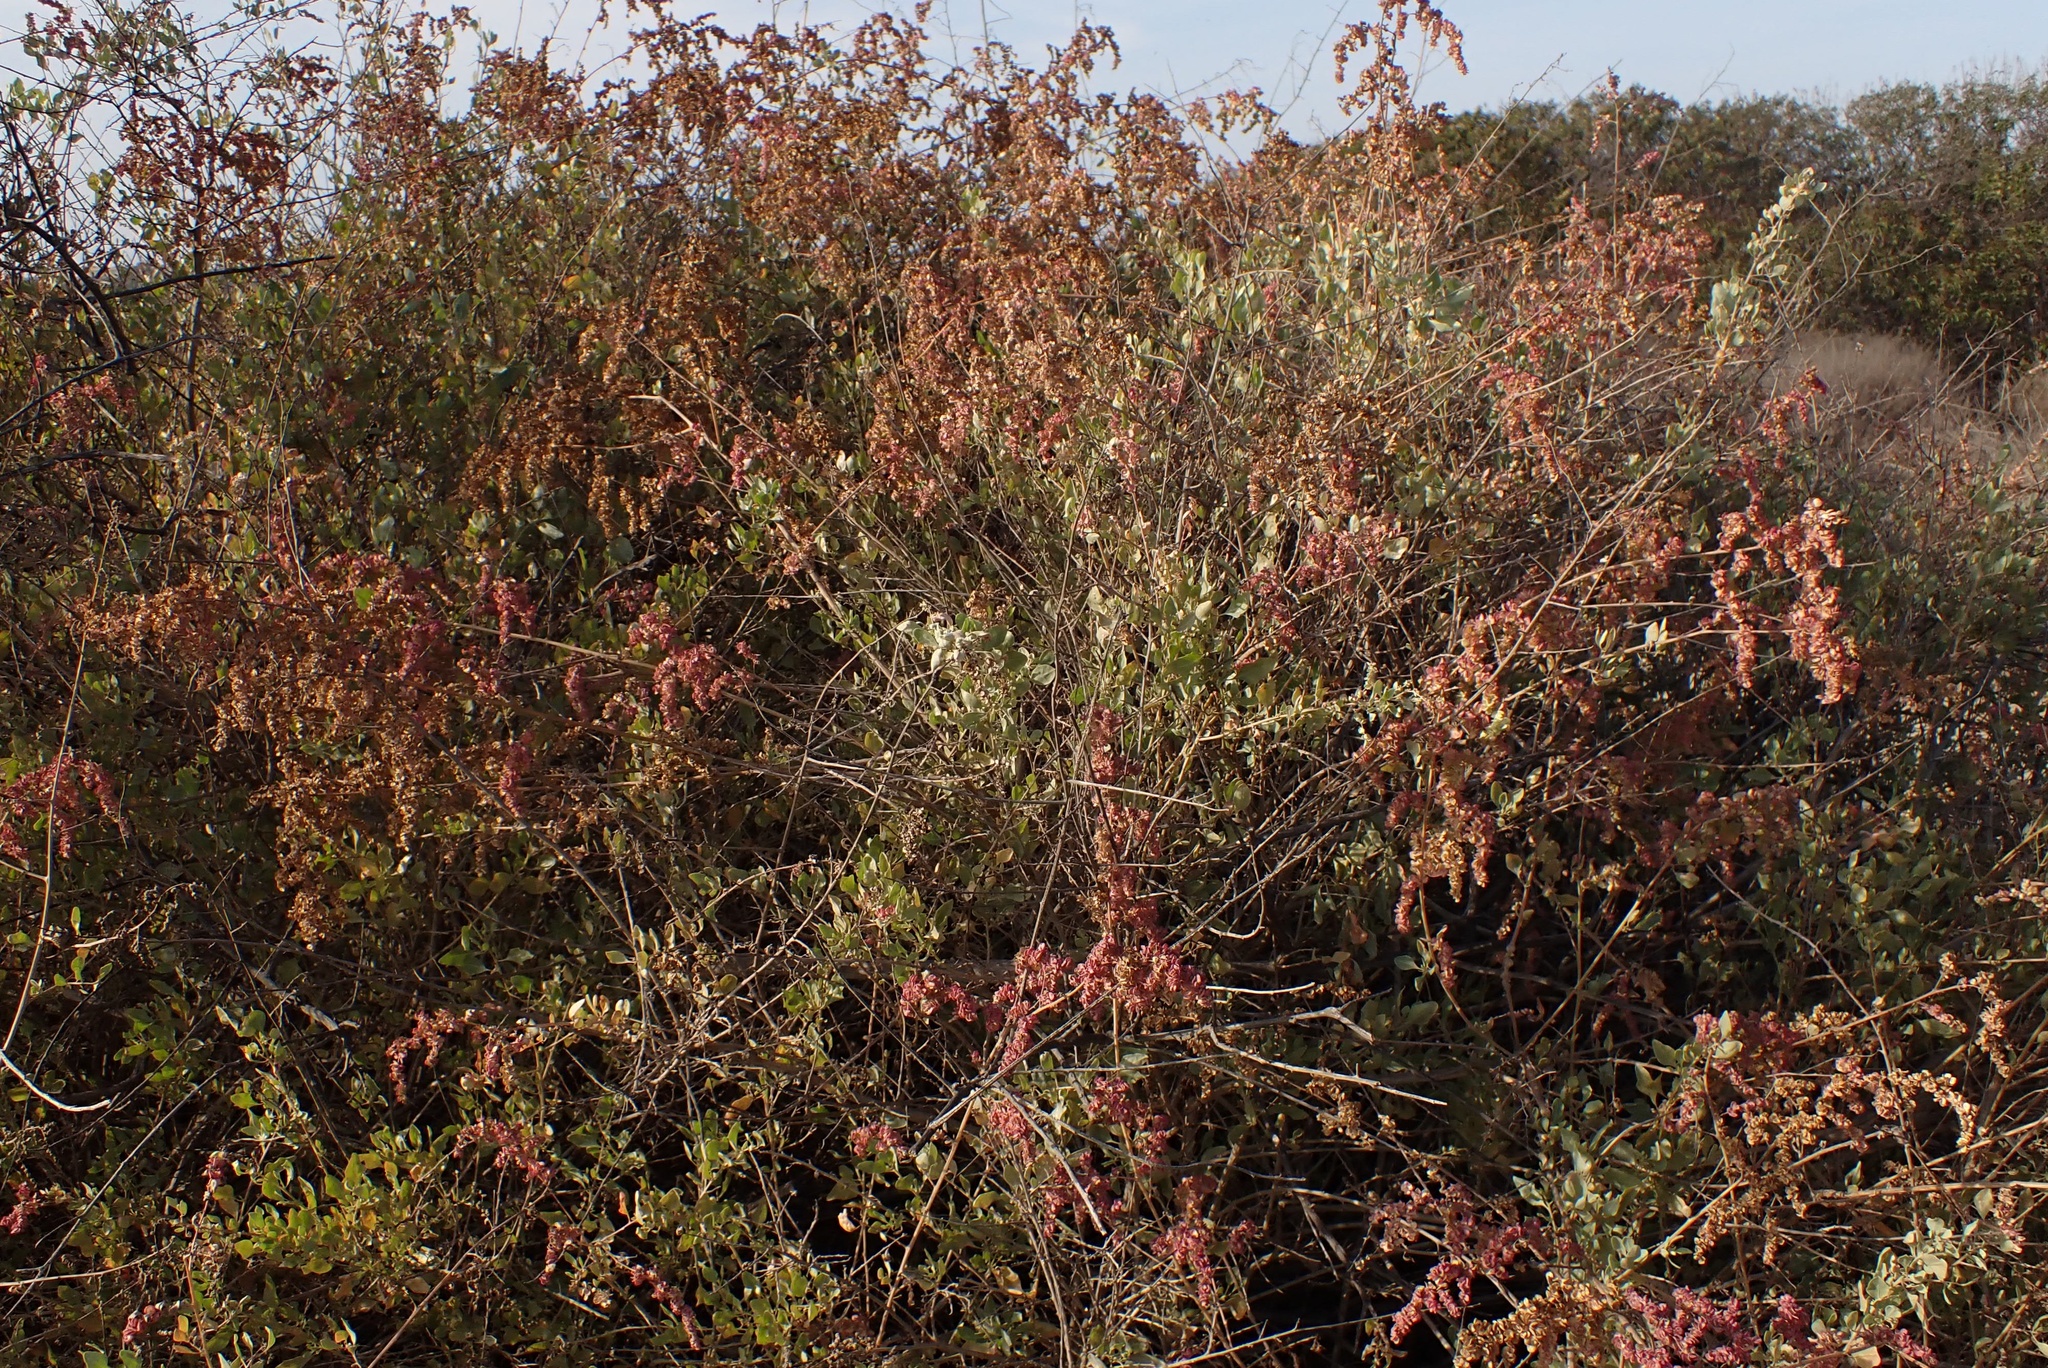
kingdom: Plantae
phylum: Tracheophyta
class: Magnoliopsida
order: Caryophyllales
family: Amaranthaceae
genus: Atriplex
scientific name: Atriplex lentiformis
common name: Big saltbush
